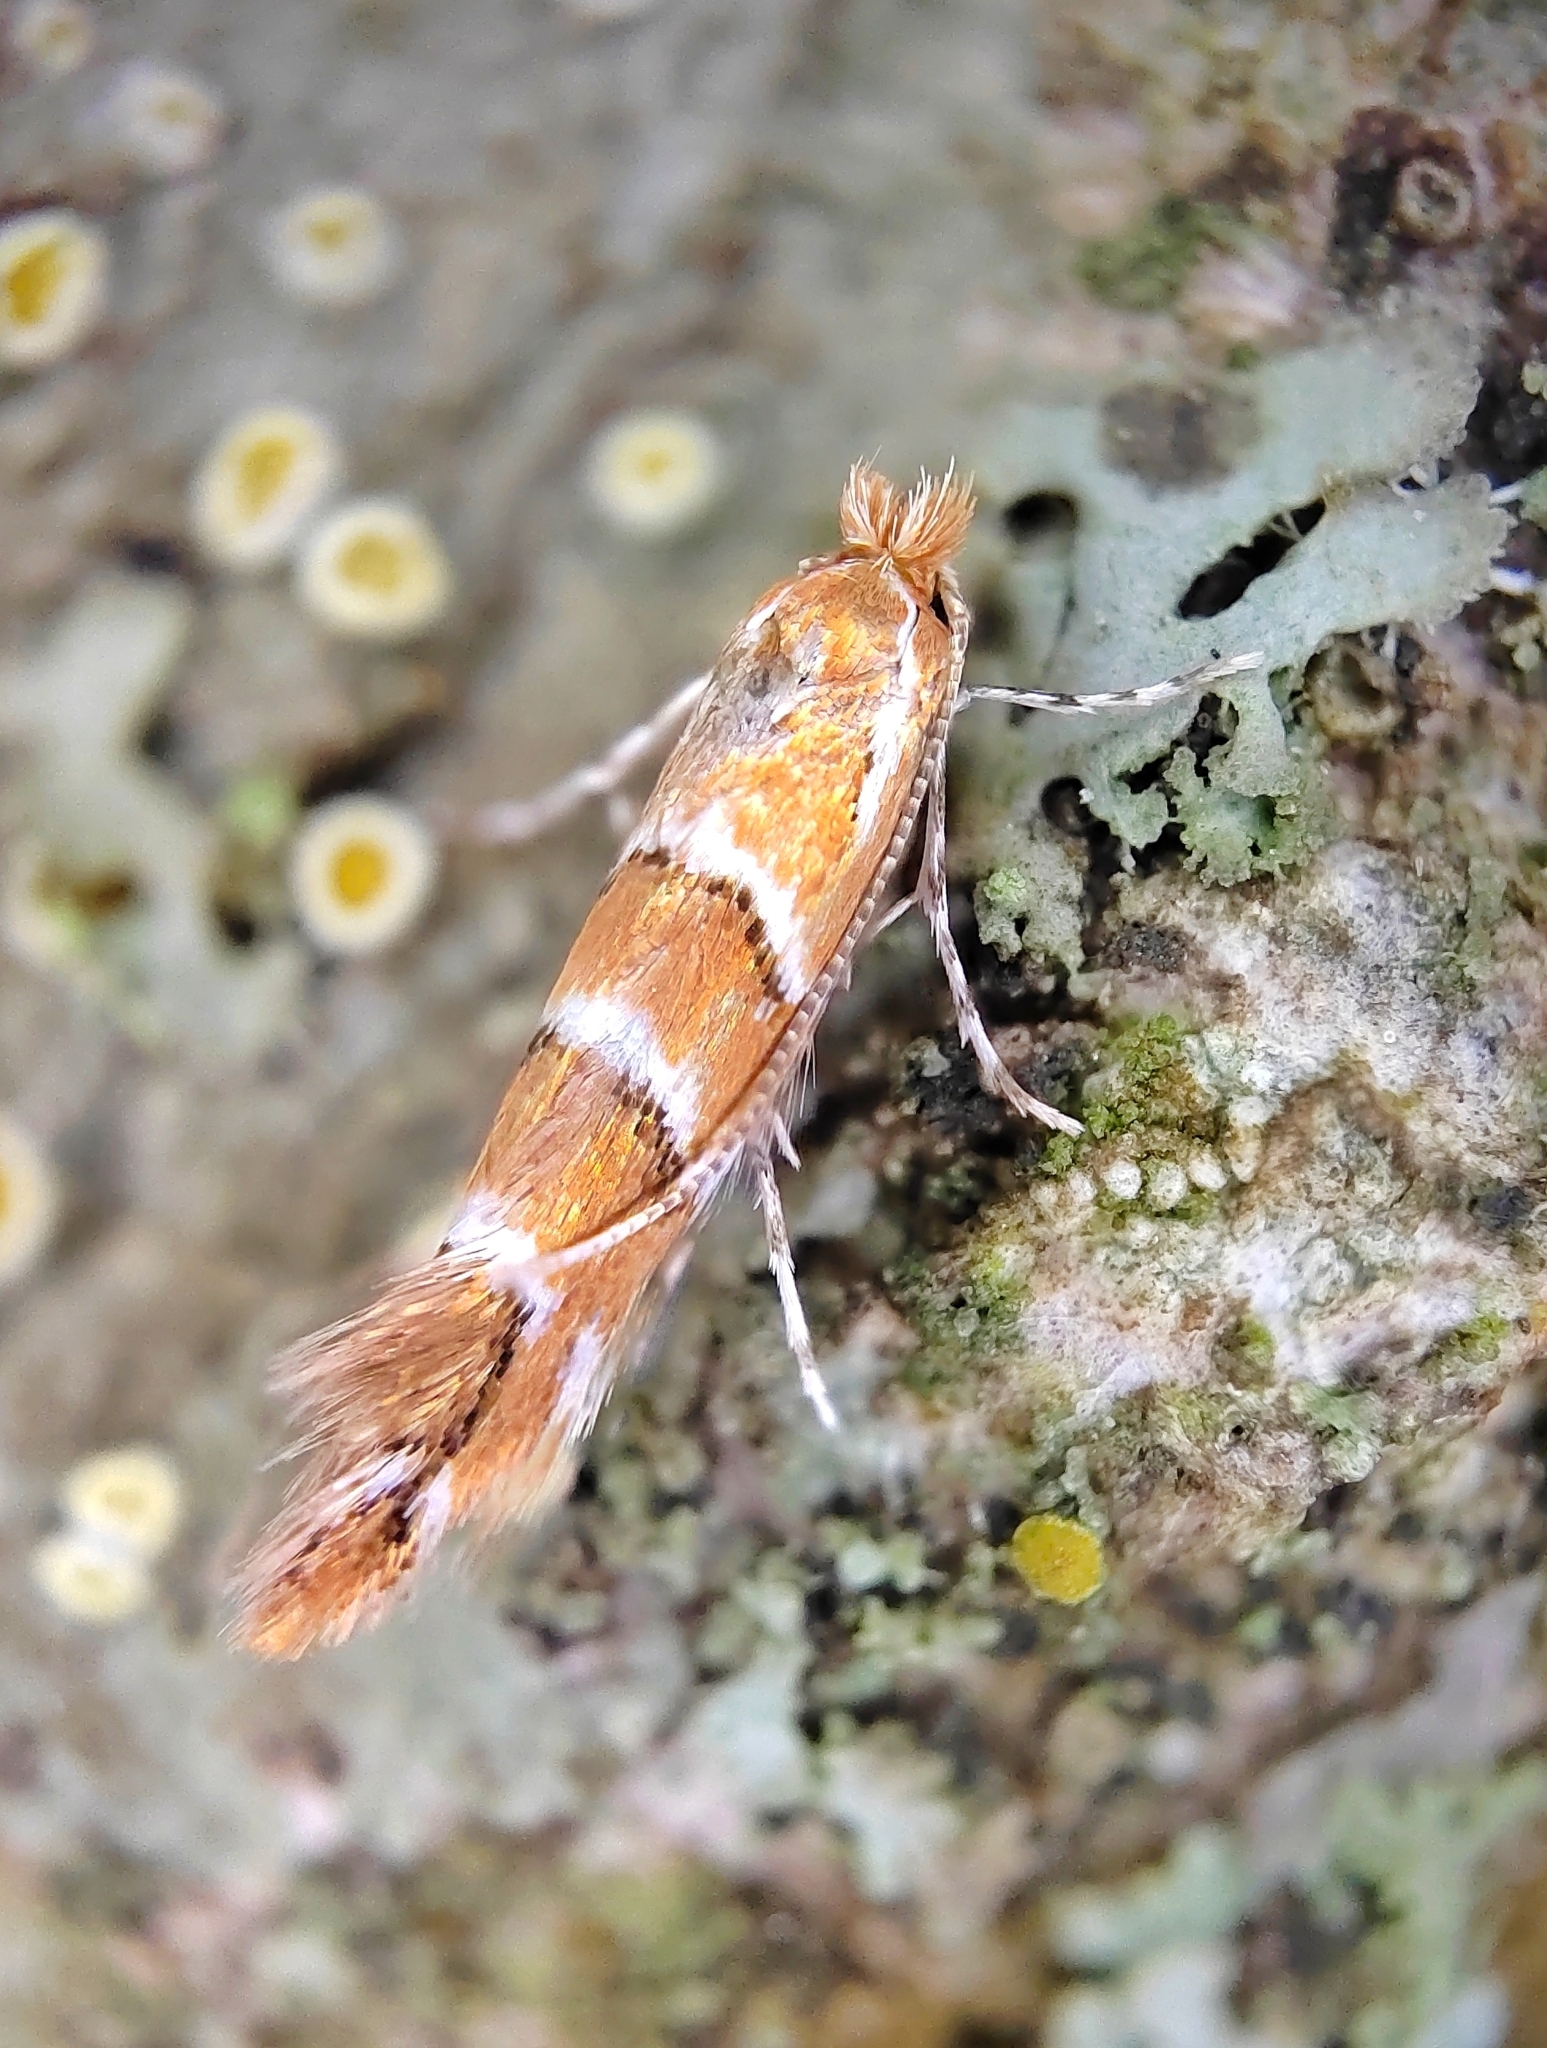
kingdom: Animalia
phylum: Arthropoda
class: Insecta
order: Lepidoptera
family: Gracillariidae
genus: Cameraria
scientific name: Cameraria ohridella
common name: Horse-chestnut leaf-miner
